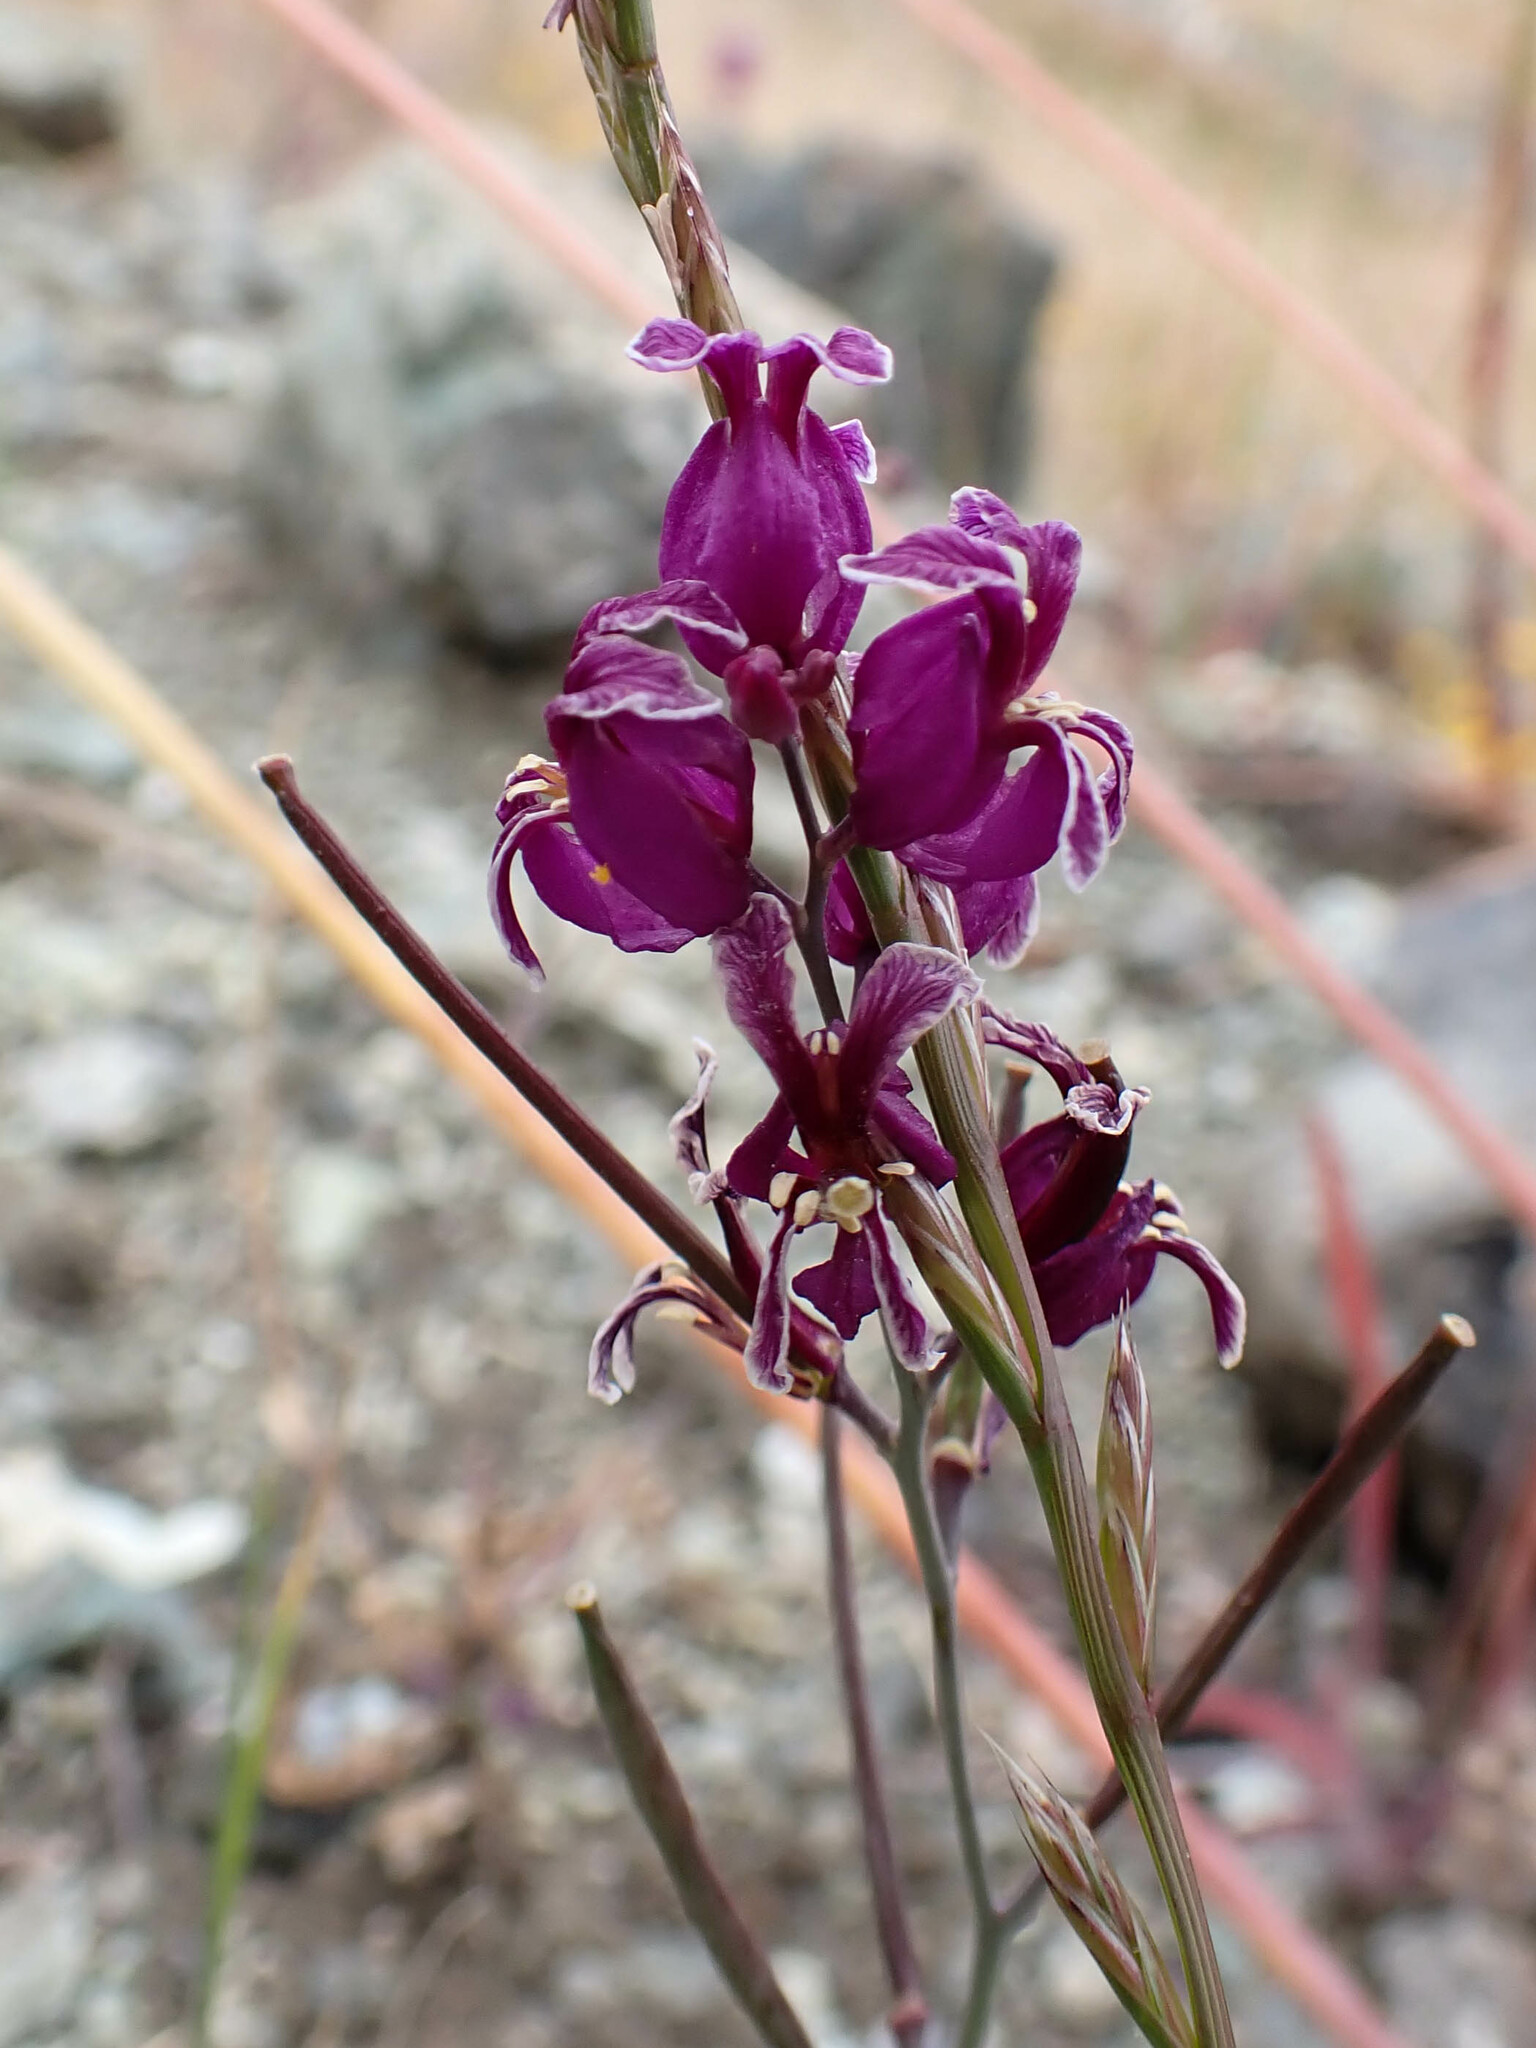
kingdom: Plantae
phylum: Tracheophyta
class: Magnoliopsida
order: Brassicales
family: Brassicaceae
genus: Streptanthus
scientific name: Streptanthus glandulosus
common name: Jewel-flower
